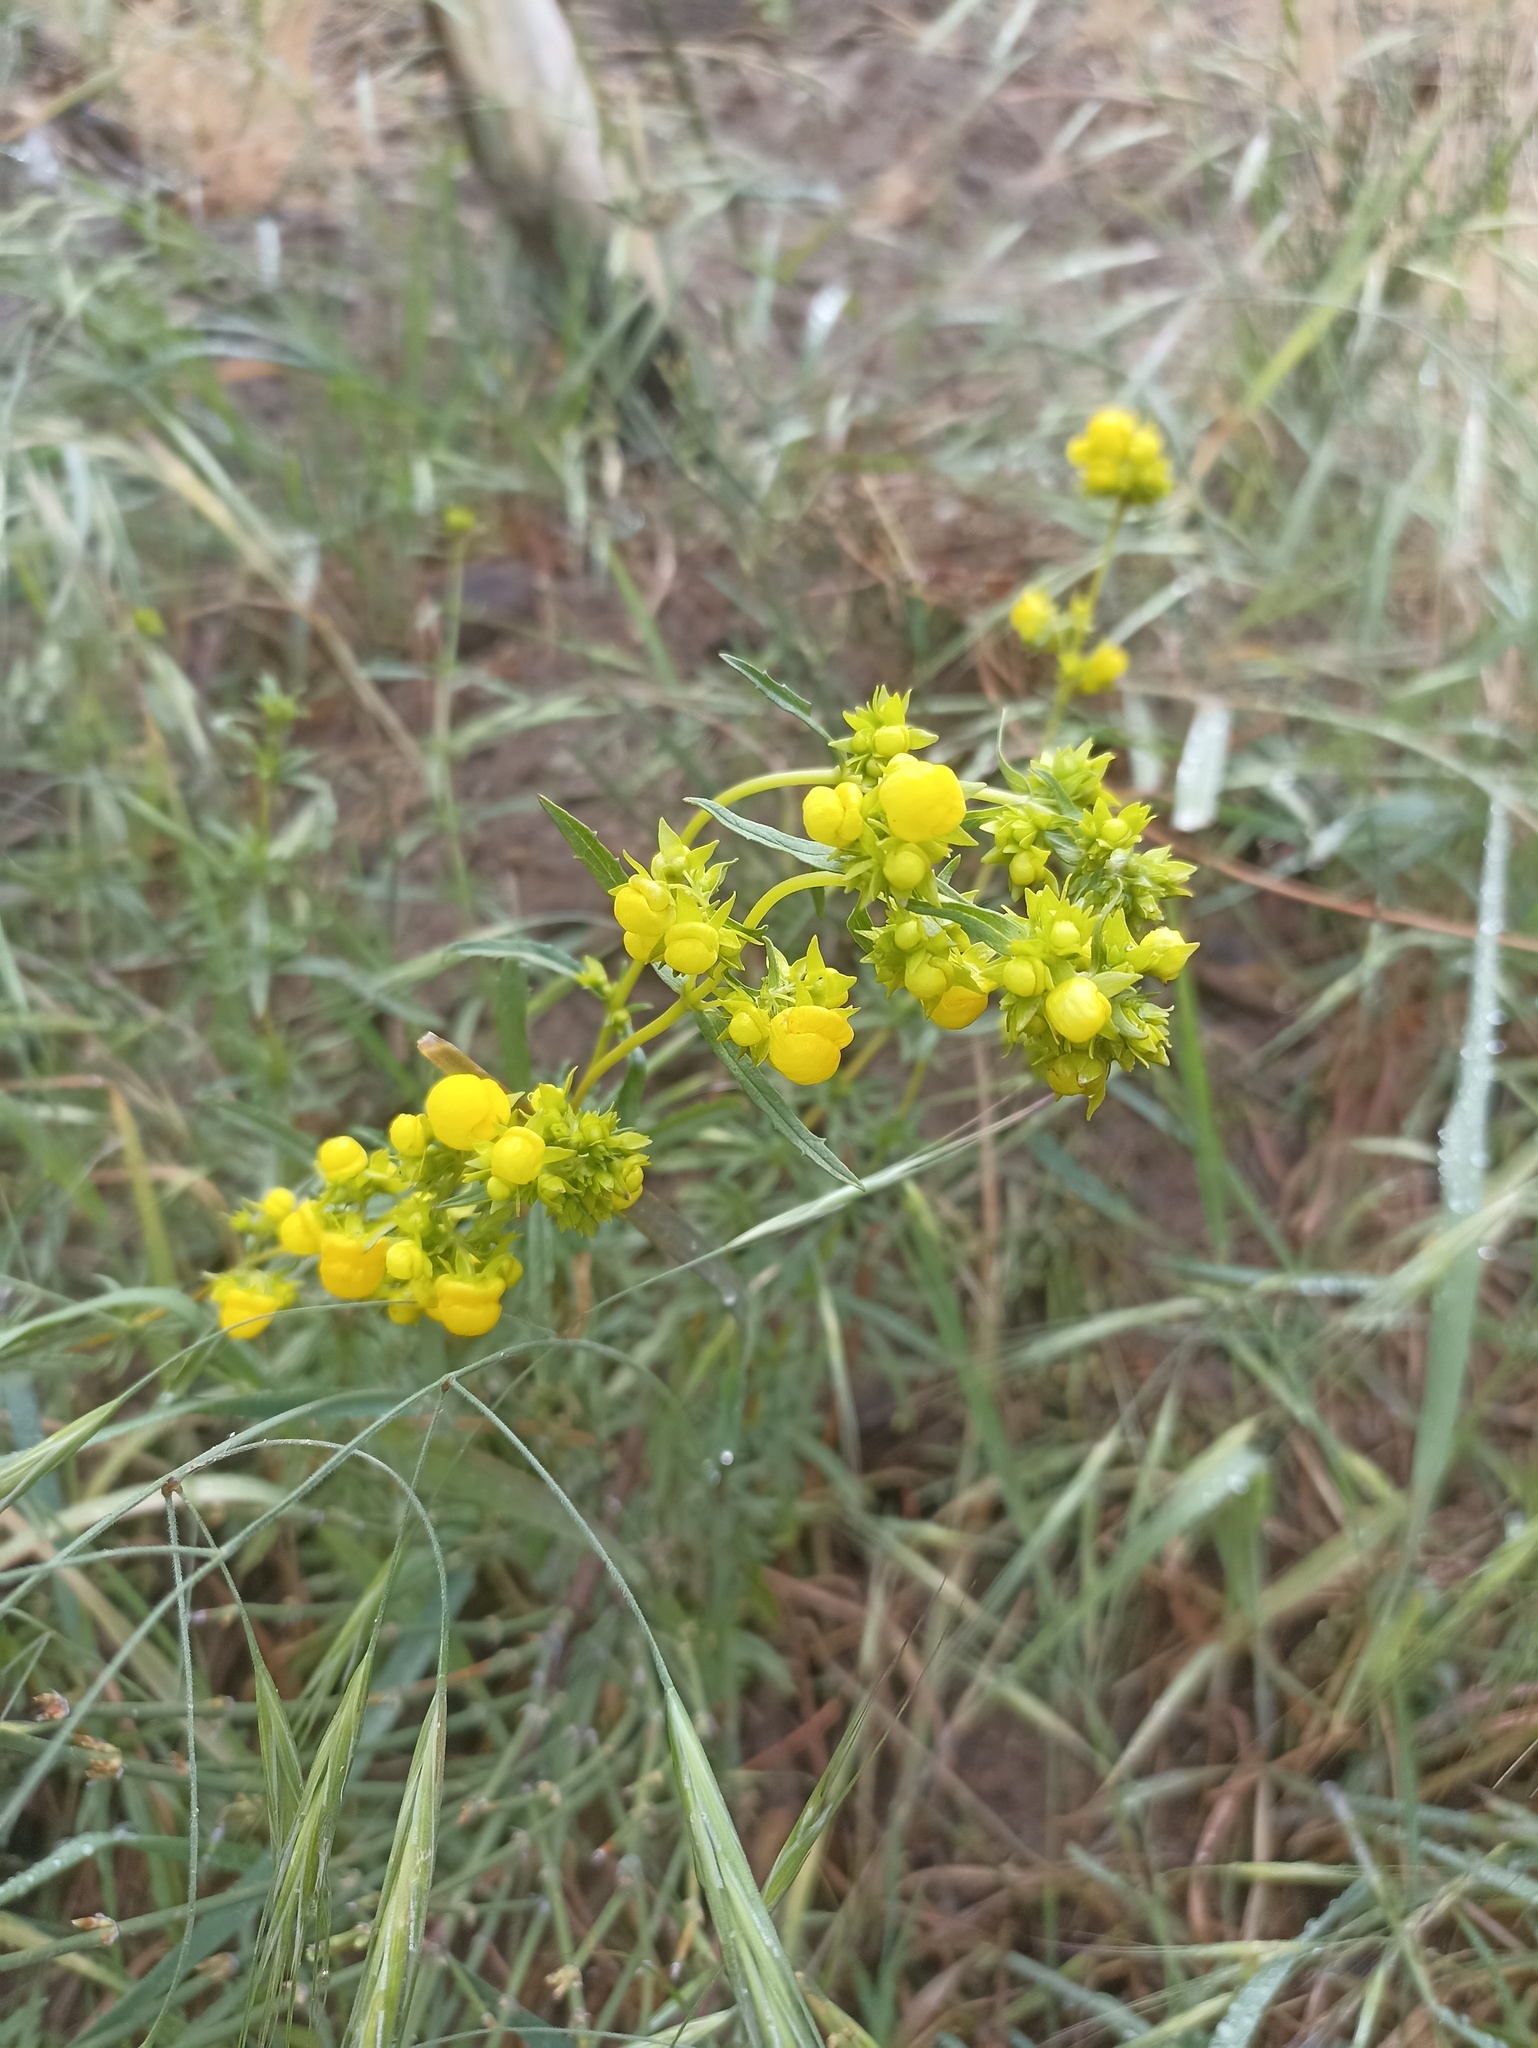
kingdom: Plantae
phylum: Tracheophyta
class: Magnoliopsida
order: Lamiales
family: Calceolariaceae
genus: Calceolaria
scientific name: Calceolaria thyrsiflora
